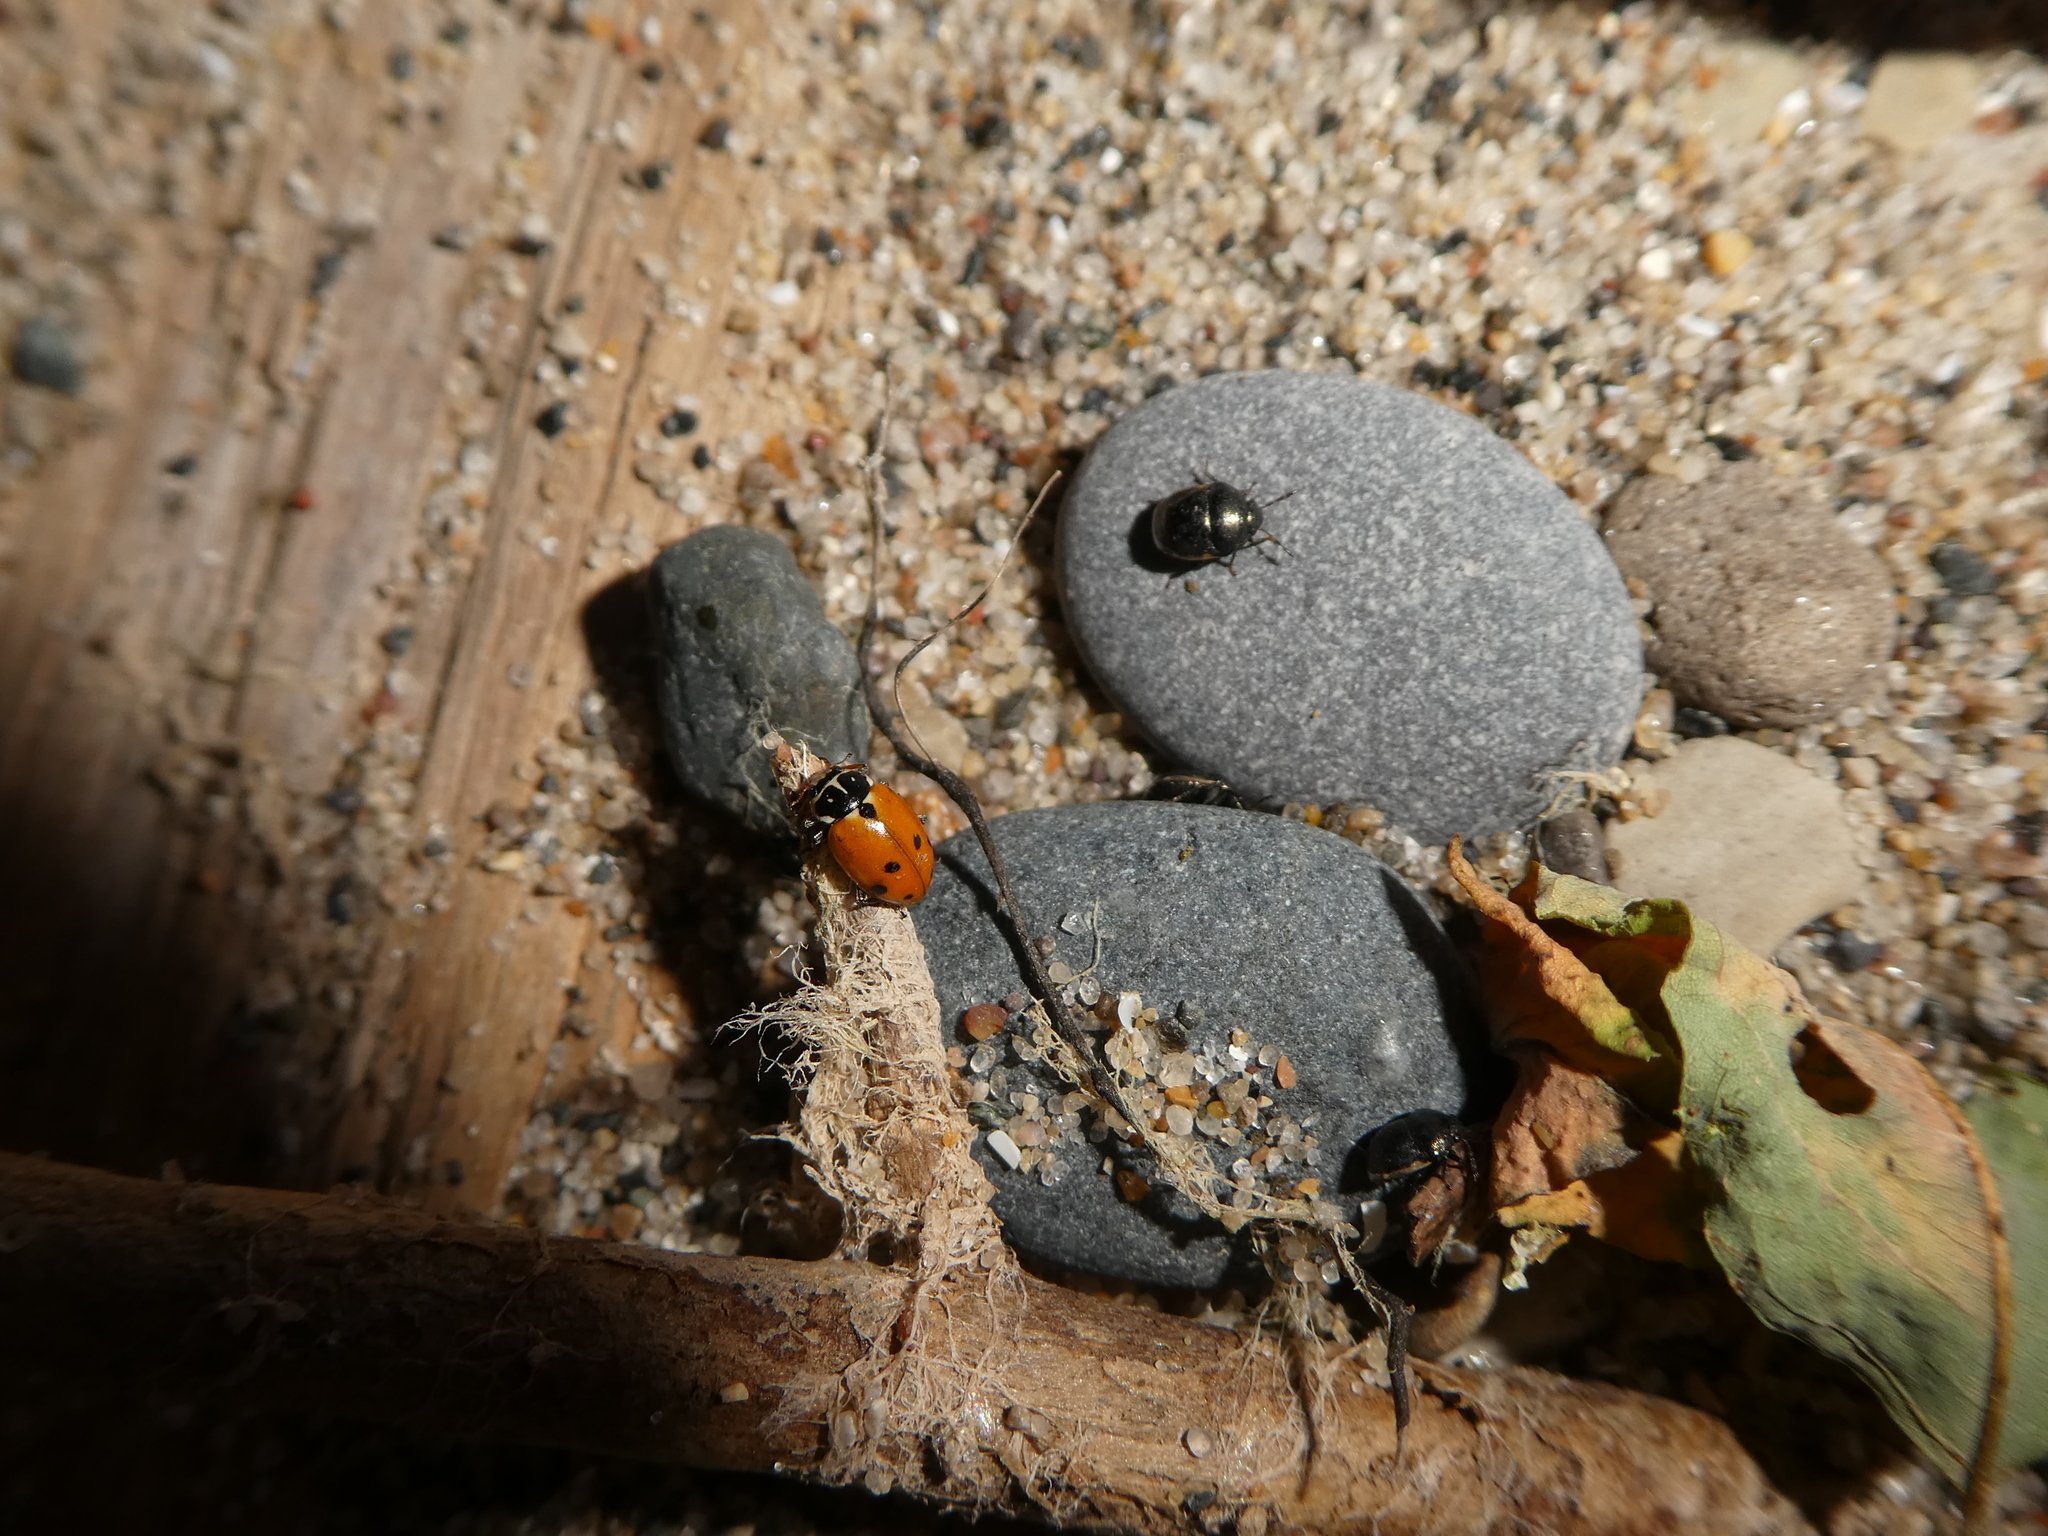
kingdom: Animalia
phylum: Arthropoda
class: Insecta
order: Coleoptera
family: Coccinellidae
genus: Hippodamia
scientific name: Hippodamia variegata
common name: Ladybird beetle
